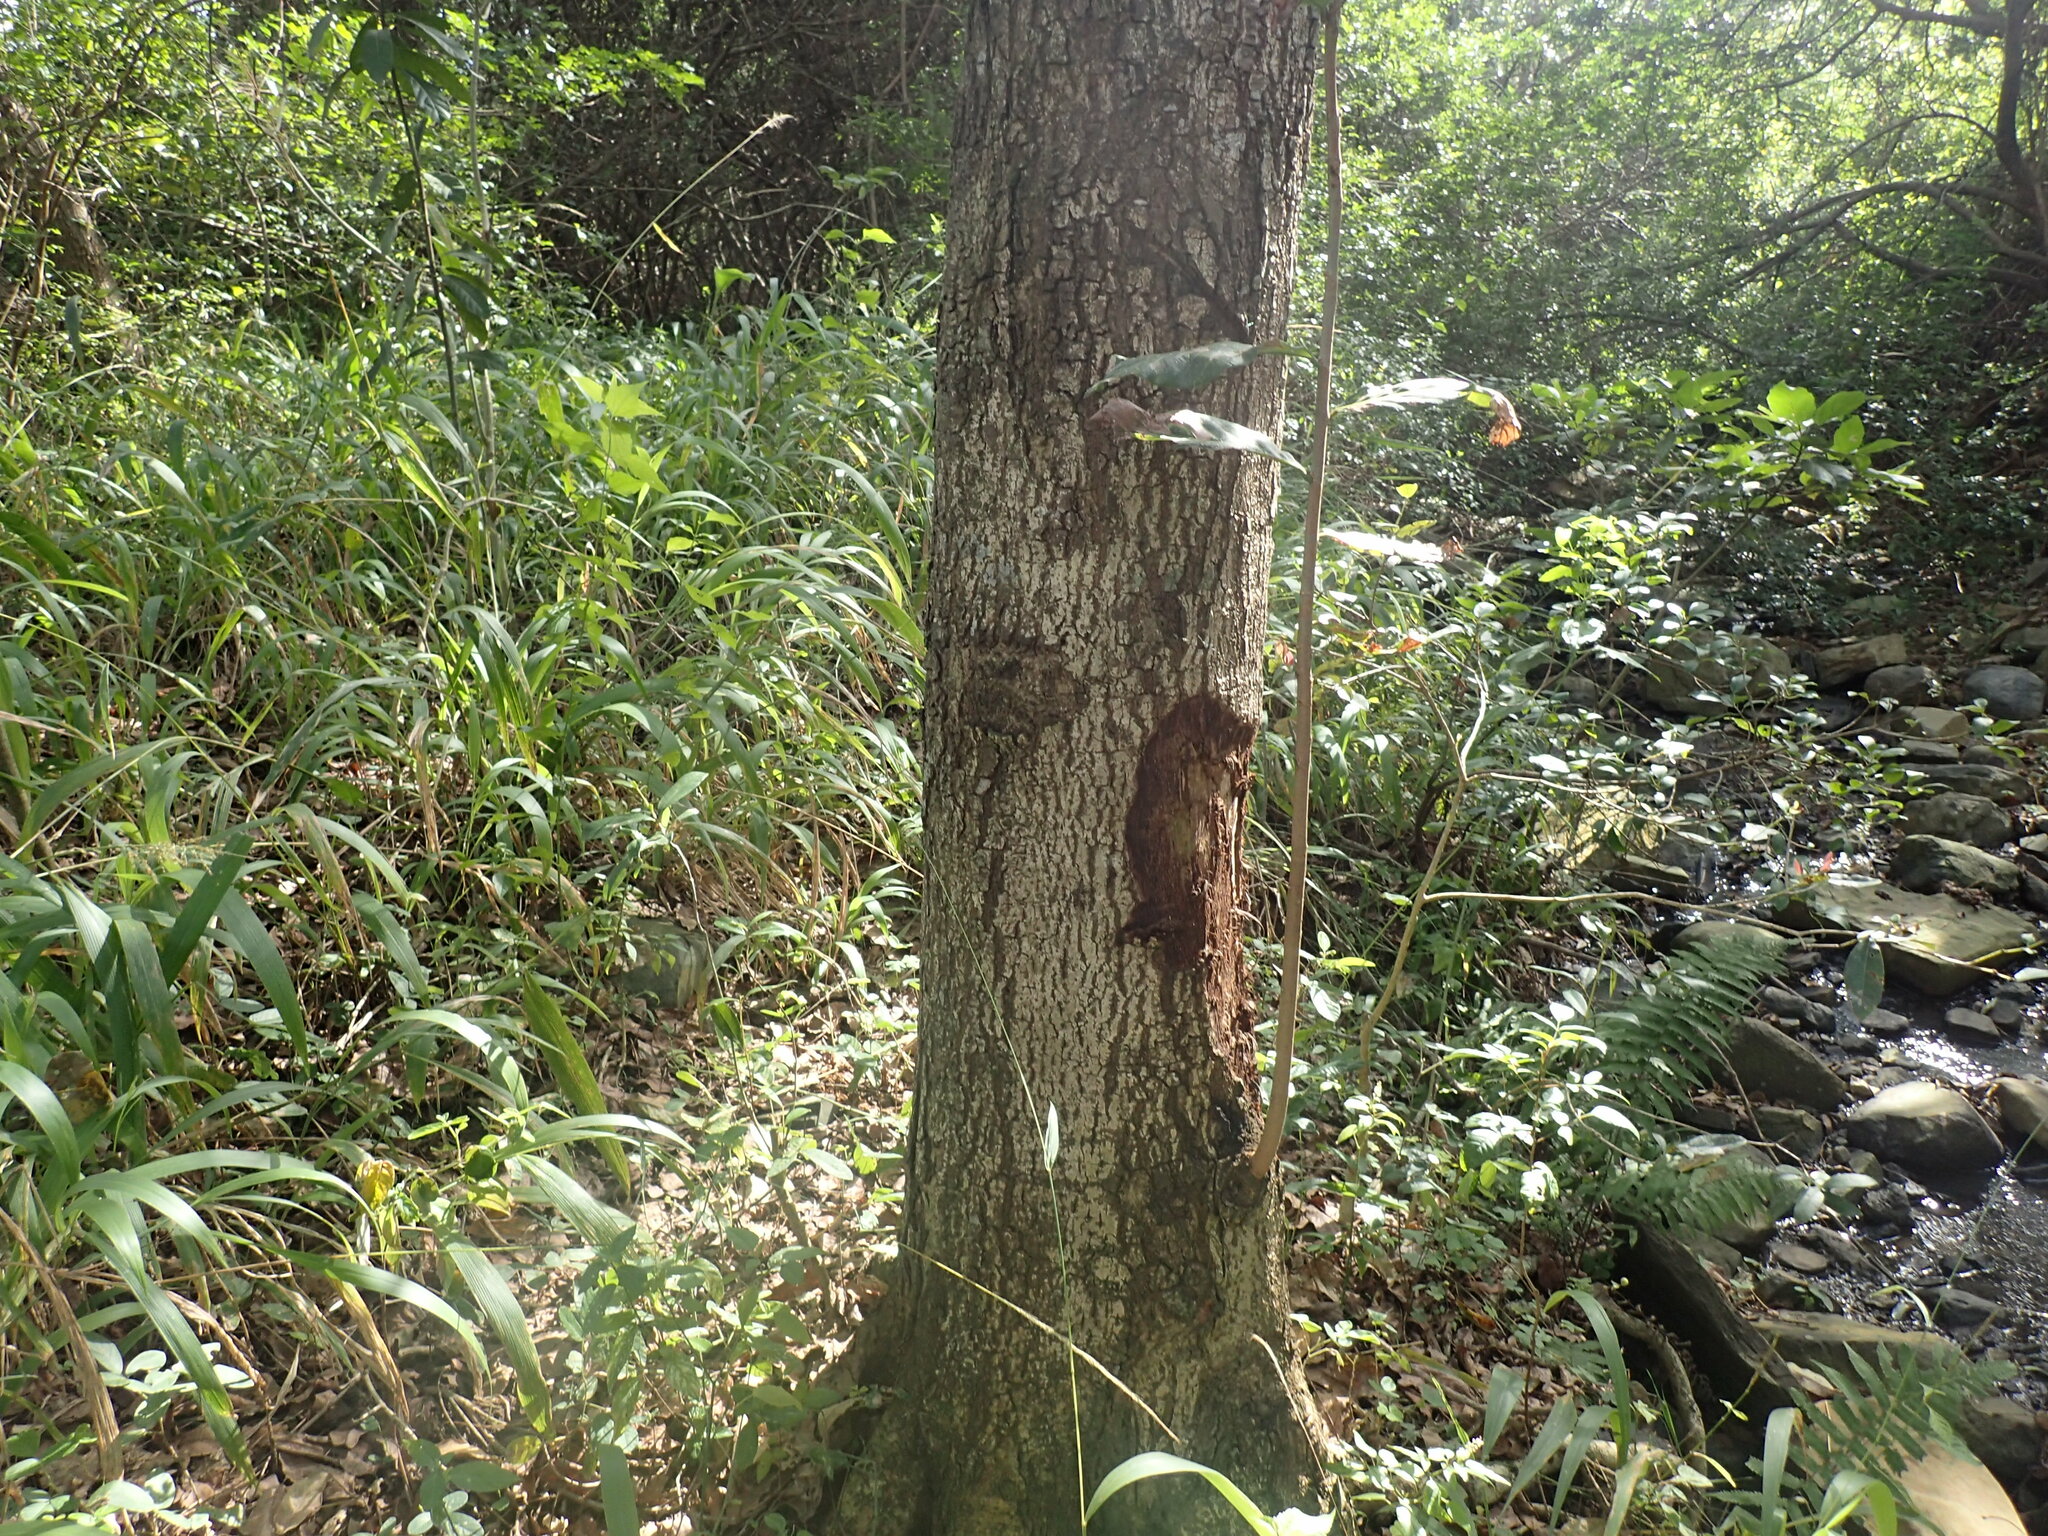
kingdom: Plantae
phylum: Tracheophyta
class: Magnoliopsida
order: Malpighiales
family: Phyllanthaceae
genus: Bridelia
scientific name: Bridelia micrantha
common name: Bridelia
